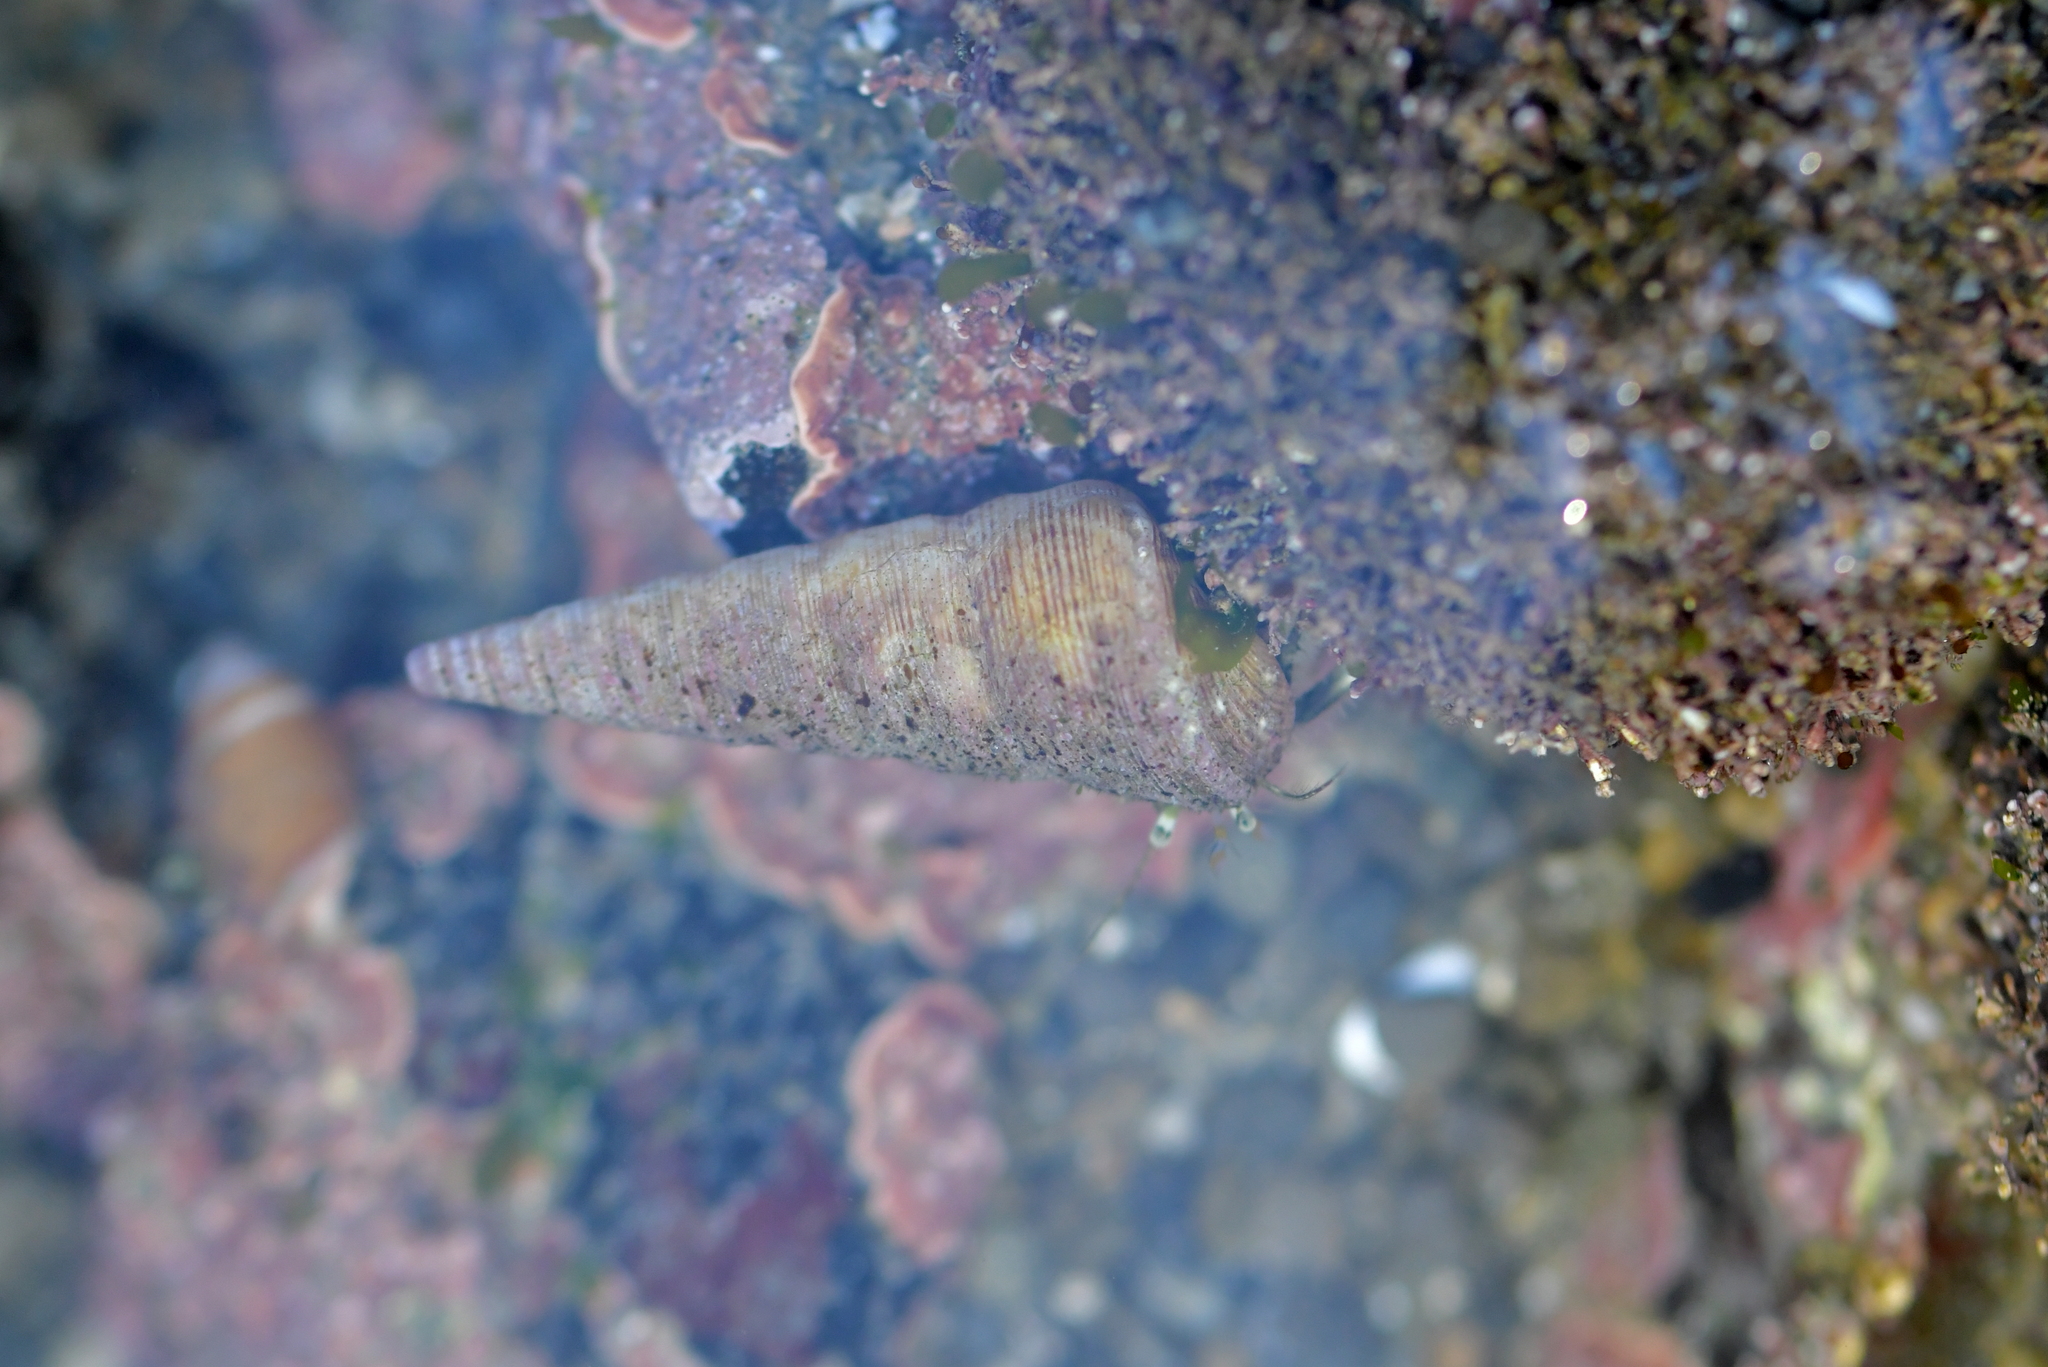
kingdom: Animalia
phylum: Arthropoda
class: Malacostraca
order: Decapoda
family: Paguridae
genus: Pagurus
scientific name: Pagurus novizealandiae
